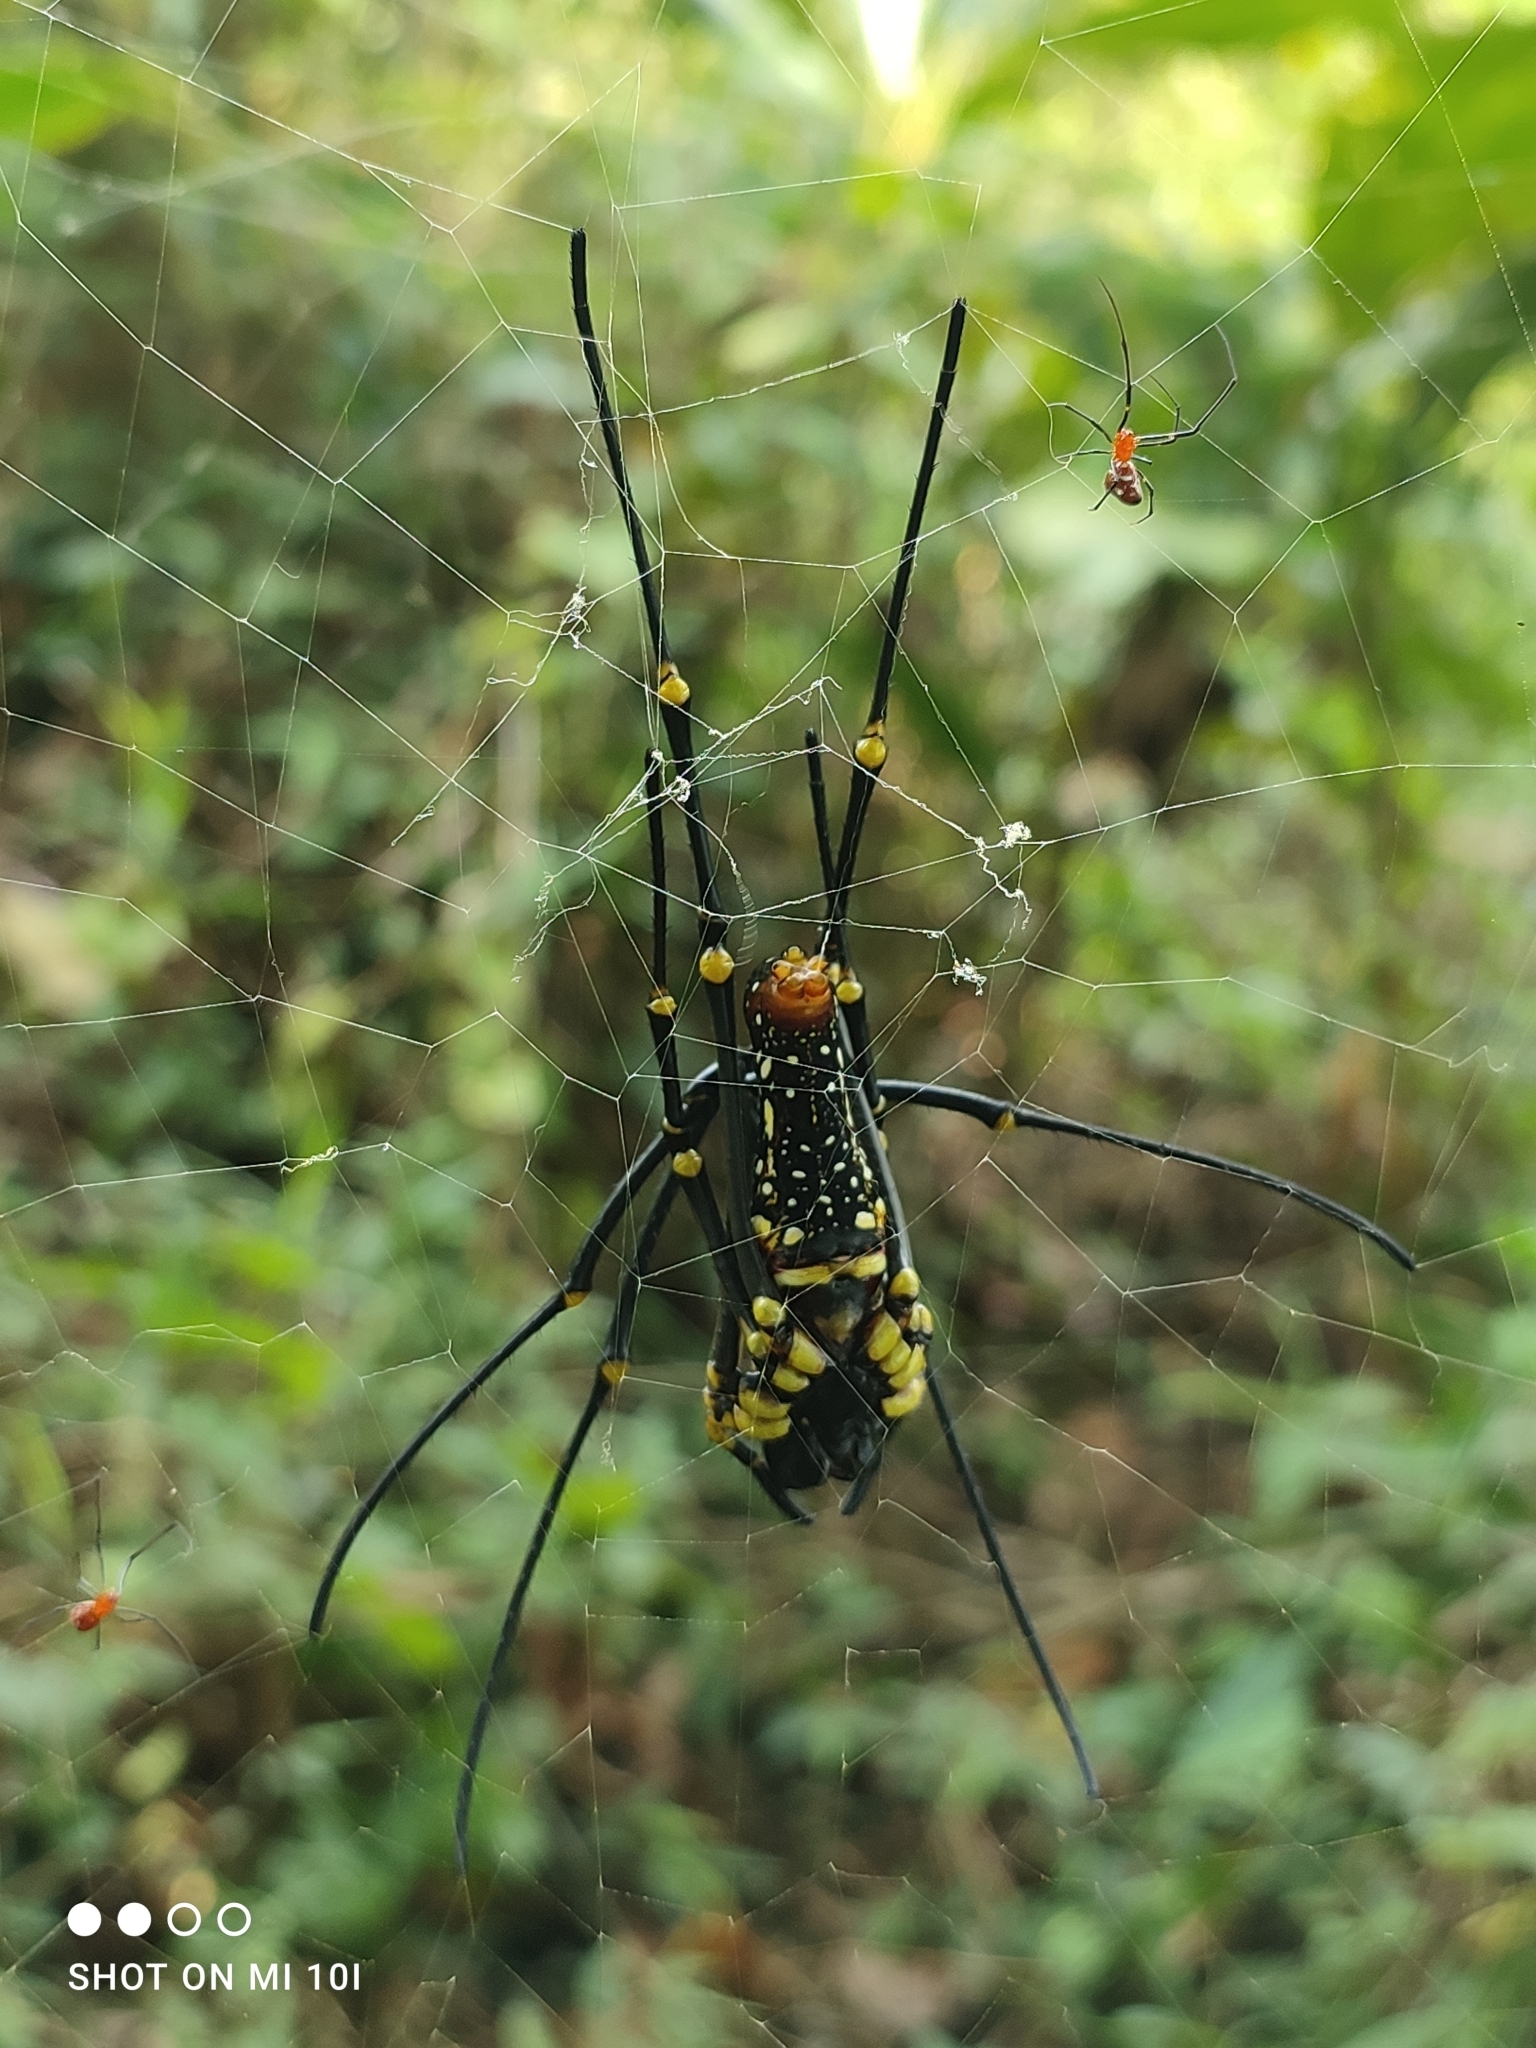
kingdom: Animalia
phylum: Arthropoda
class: Arachnida
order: Araneae
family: Araneidae
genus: Nephila
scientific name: Nephila pilipes
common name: Giant golden orb weaver
